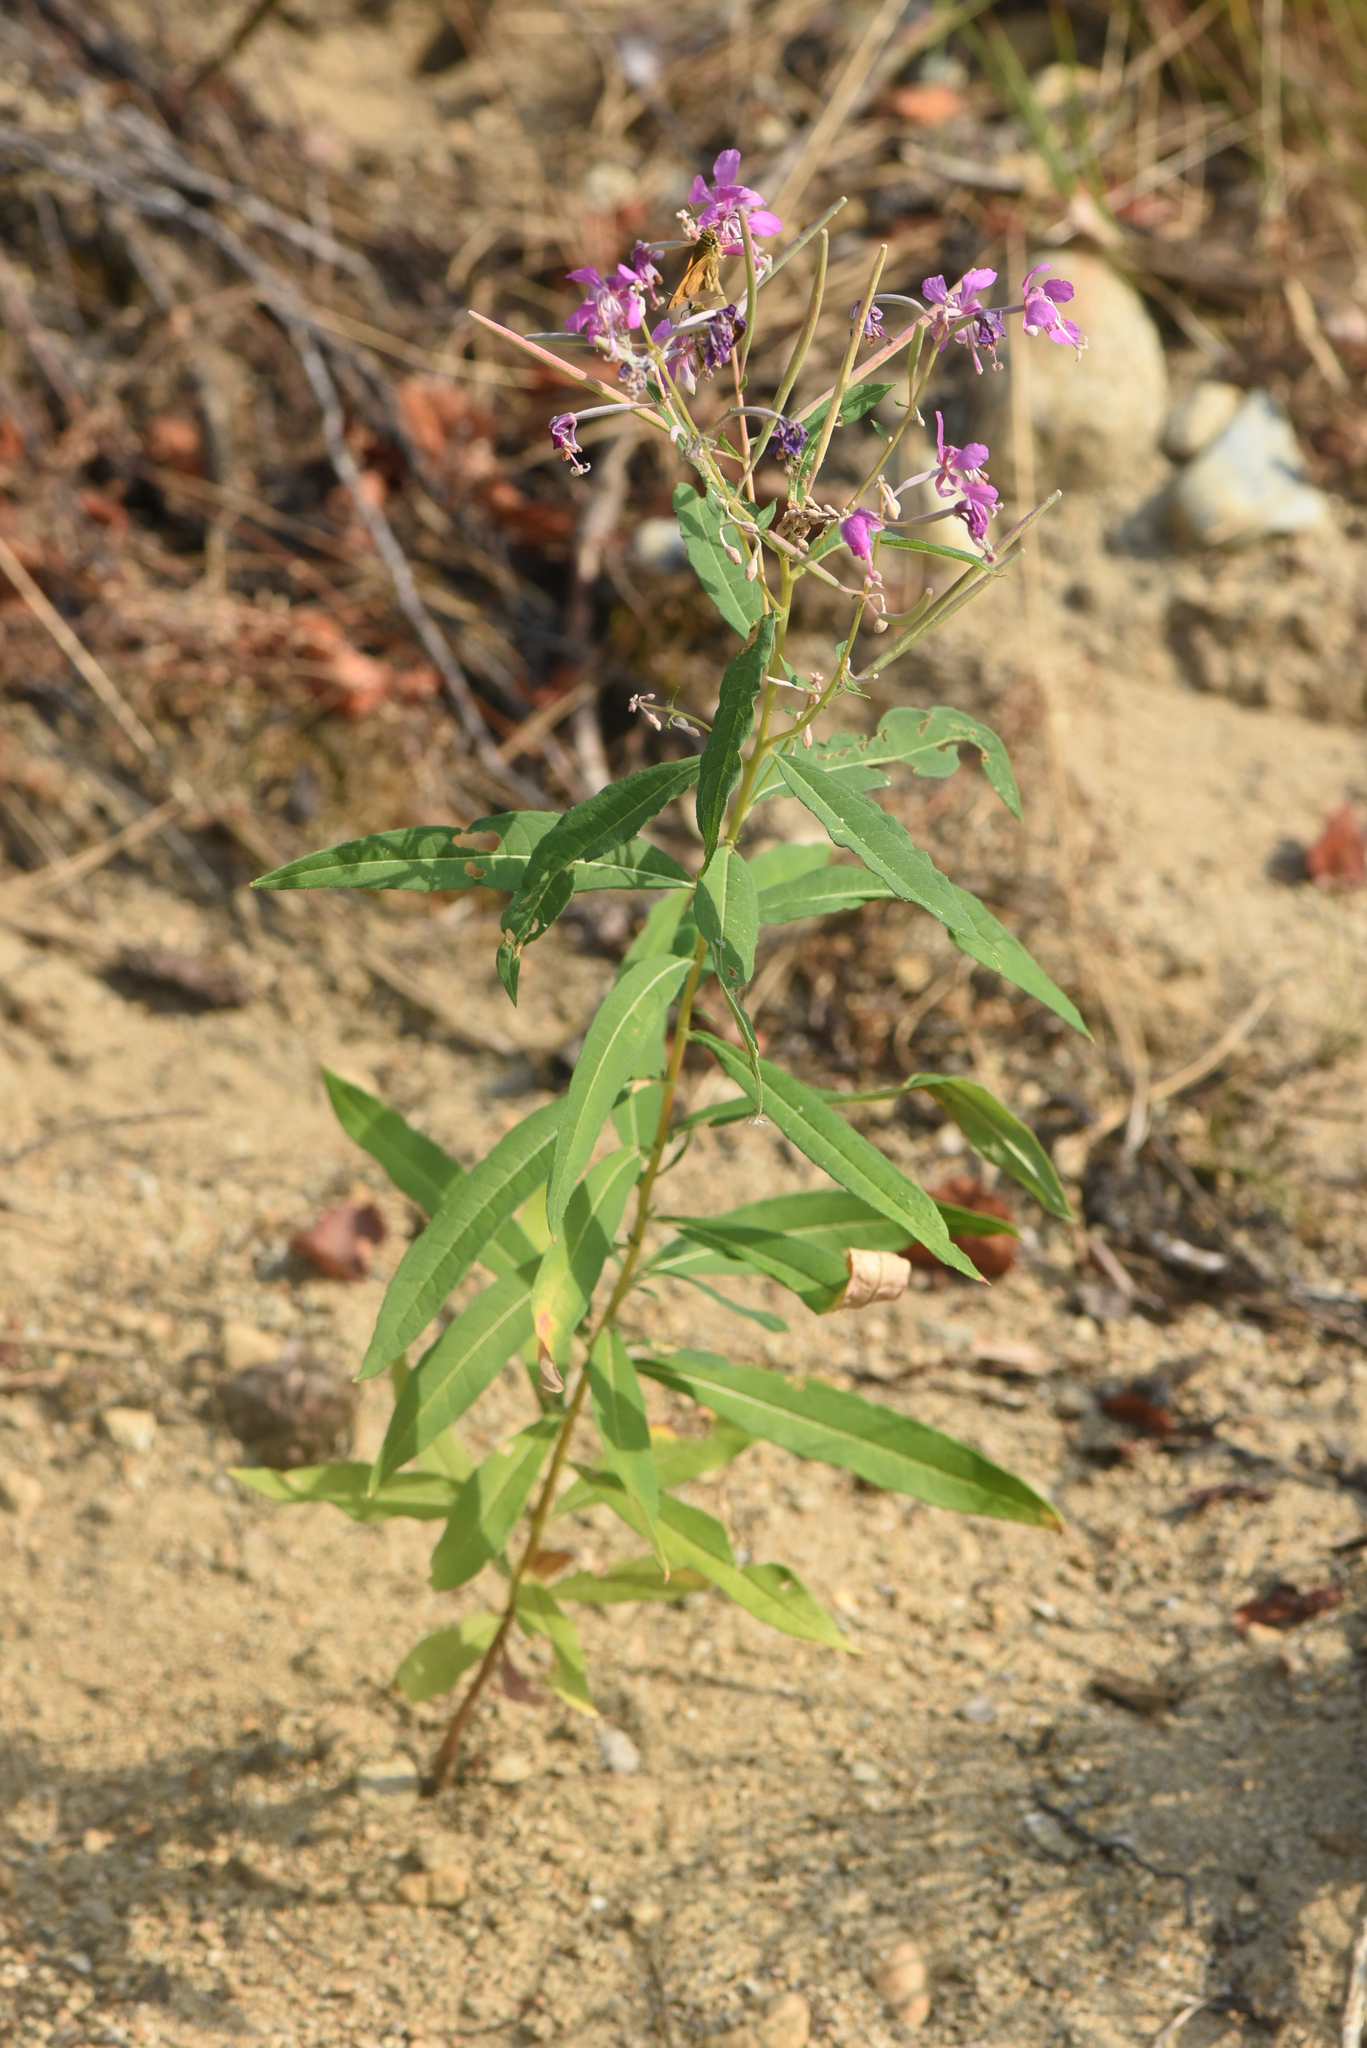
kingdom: Plantae
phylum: Tracheophyta
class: Magnoliopsida
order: Myrtales
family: Onagraceae
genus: Chamaenerion
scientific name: Chamaenerion angustifolium
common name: Fireweed
